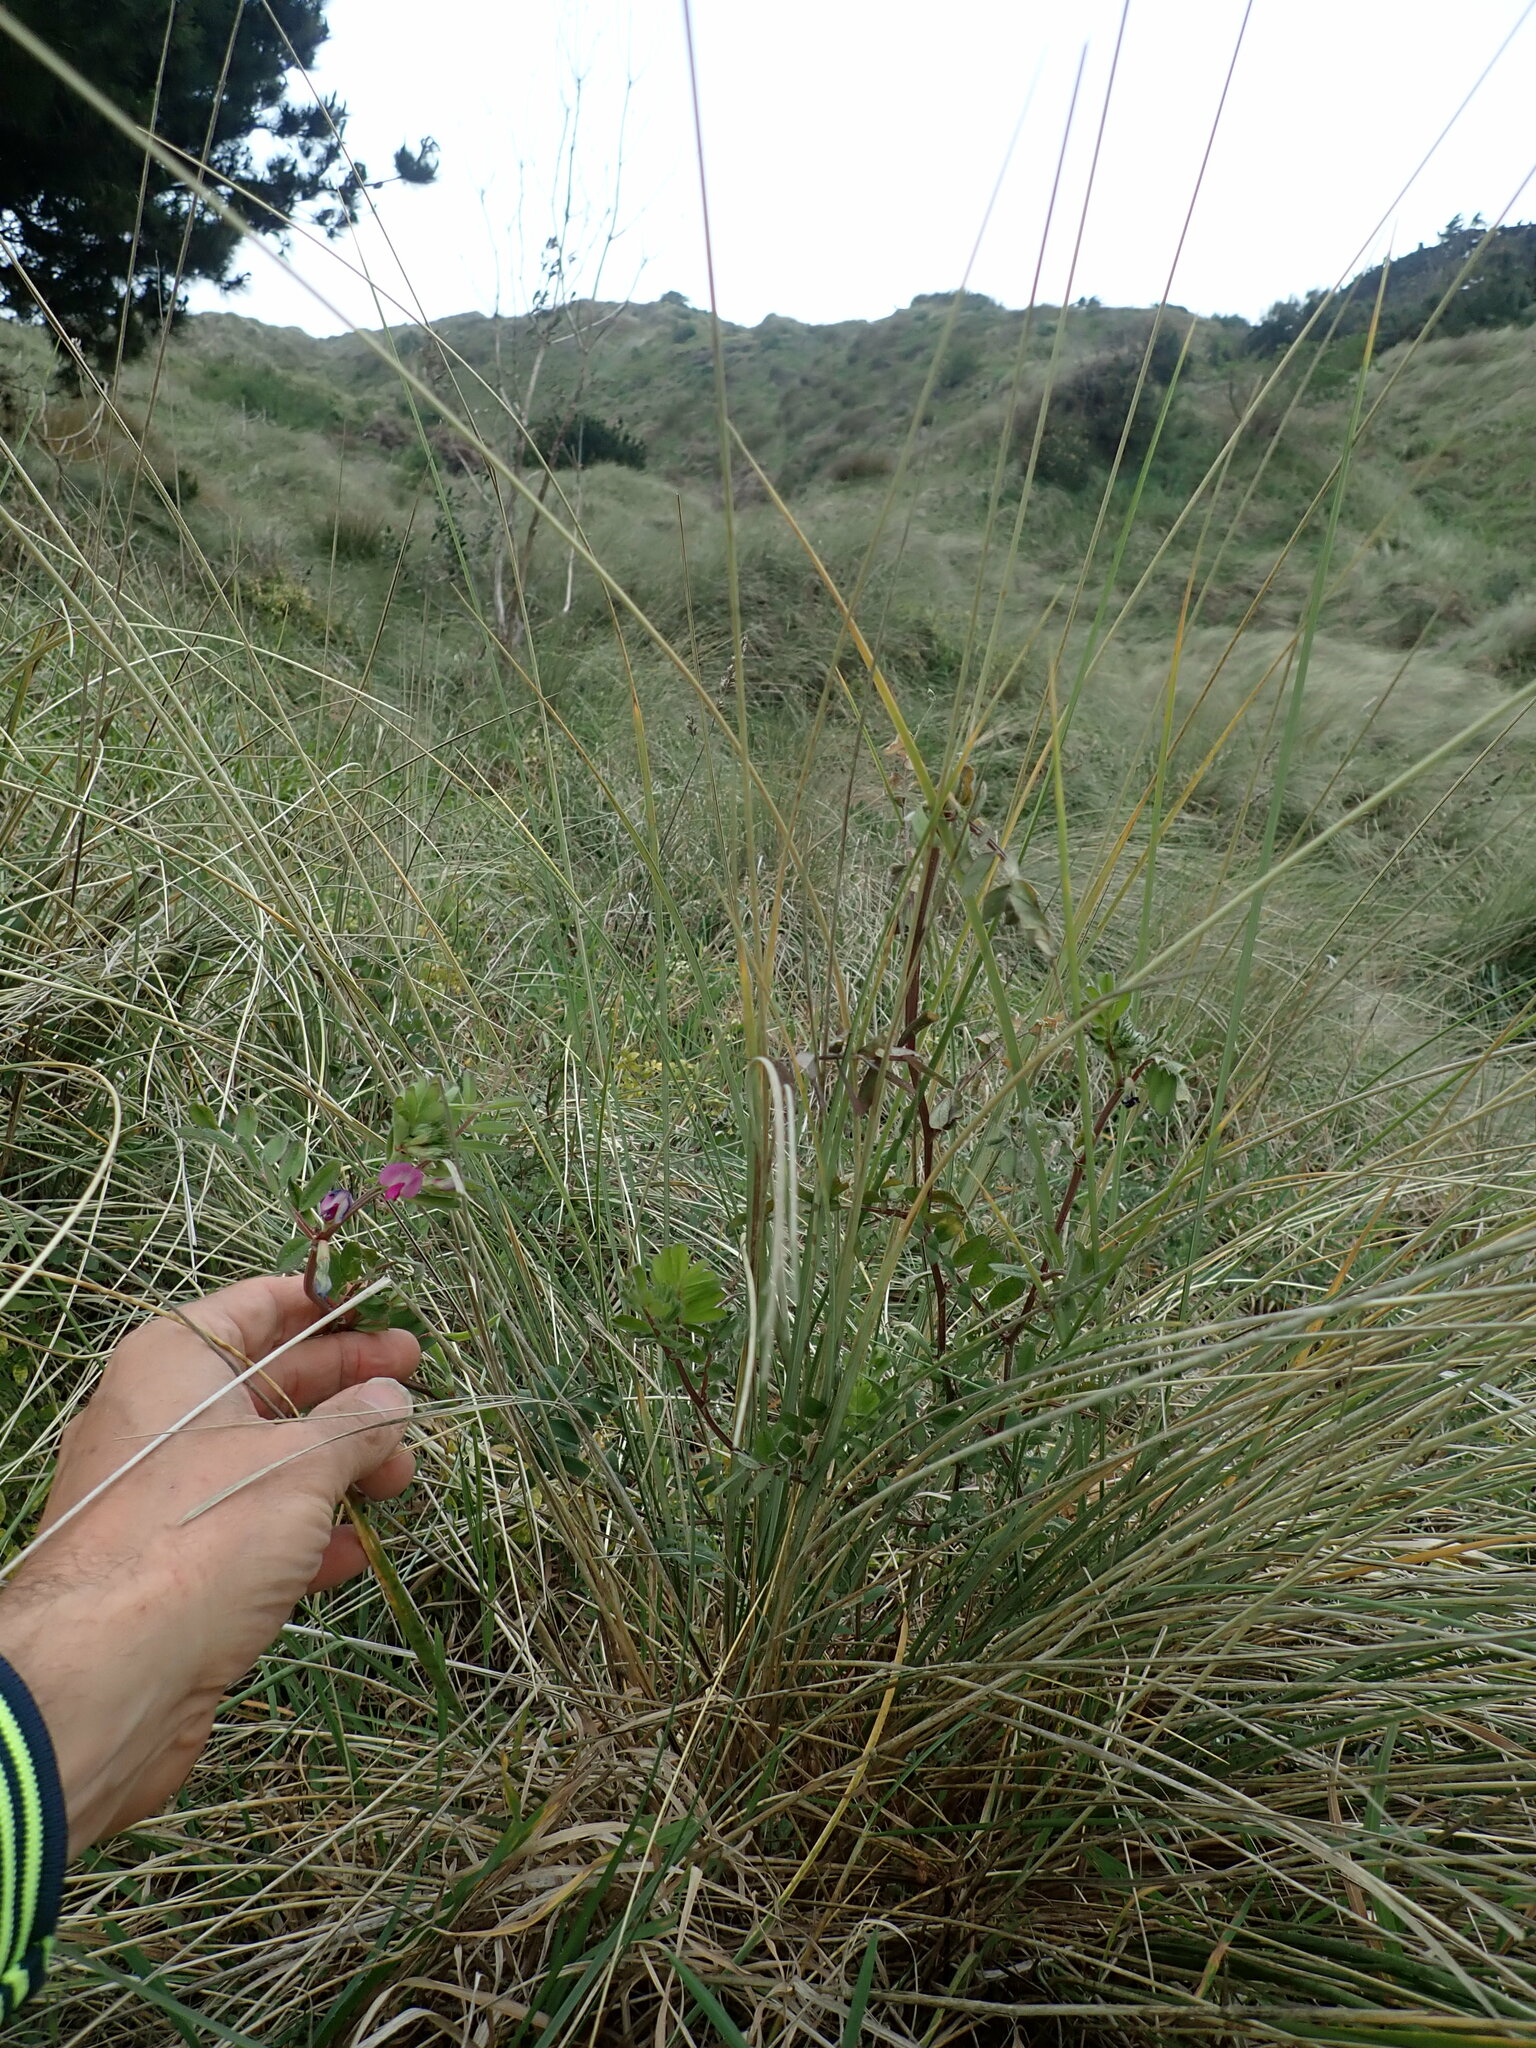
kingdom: Plantae
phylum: Tracheophyta
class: Magnoliopsida
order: Fabales
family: Fabaceae
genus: Vicia
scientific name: Vicia sativa
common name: Garden vetch
